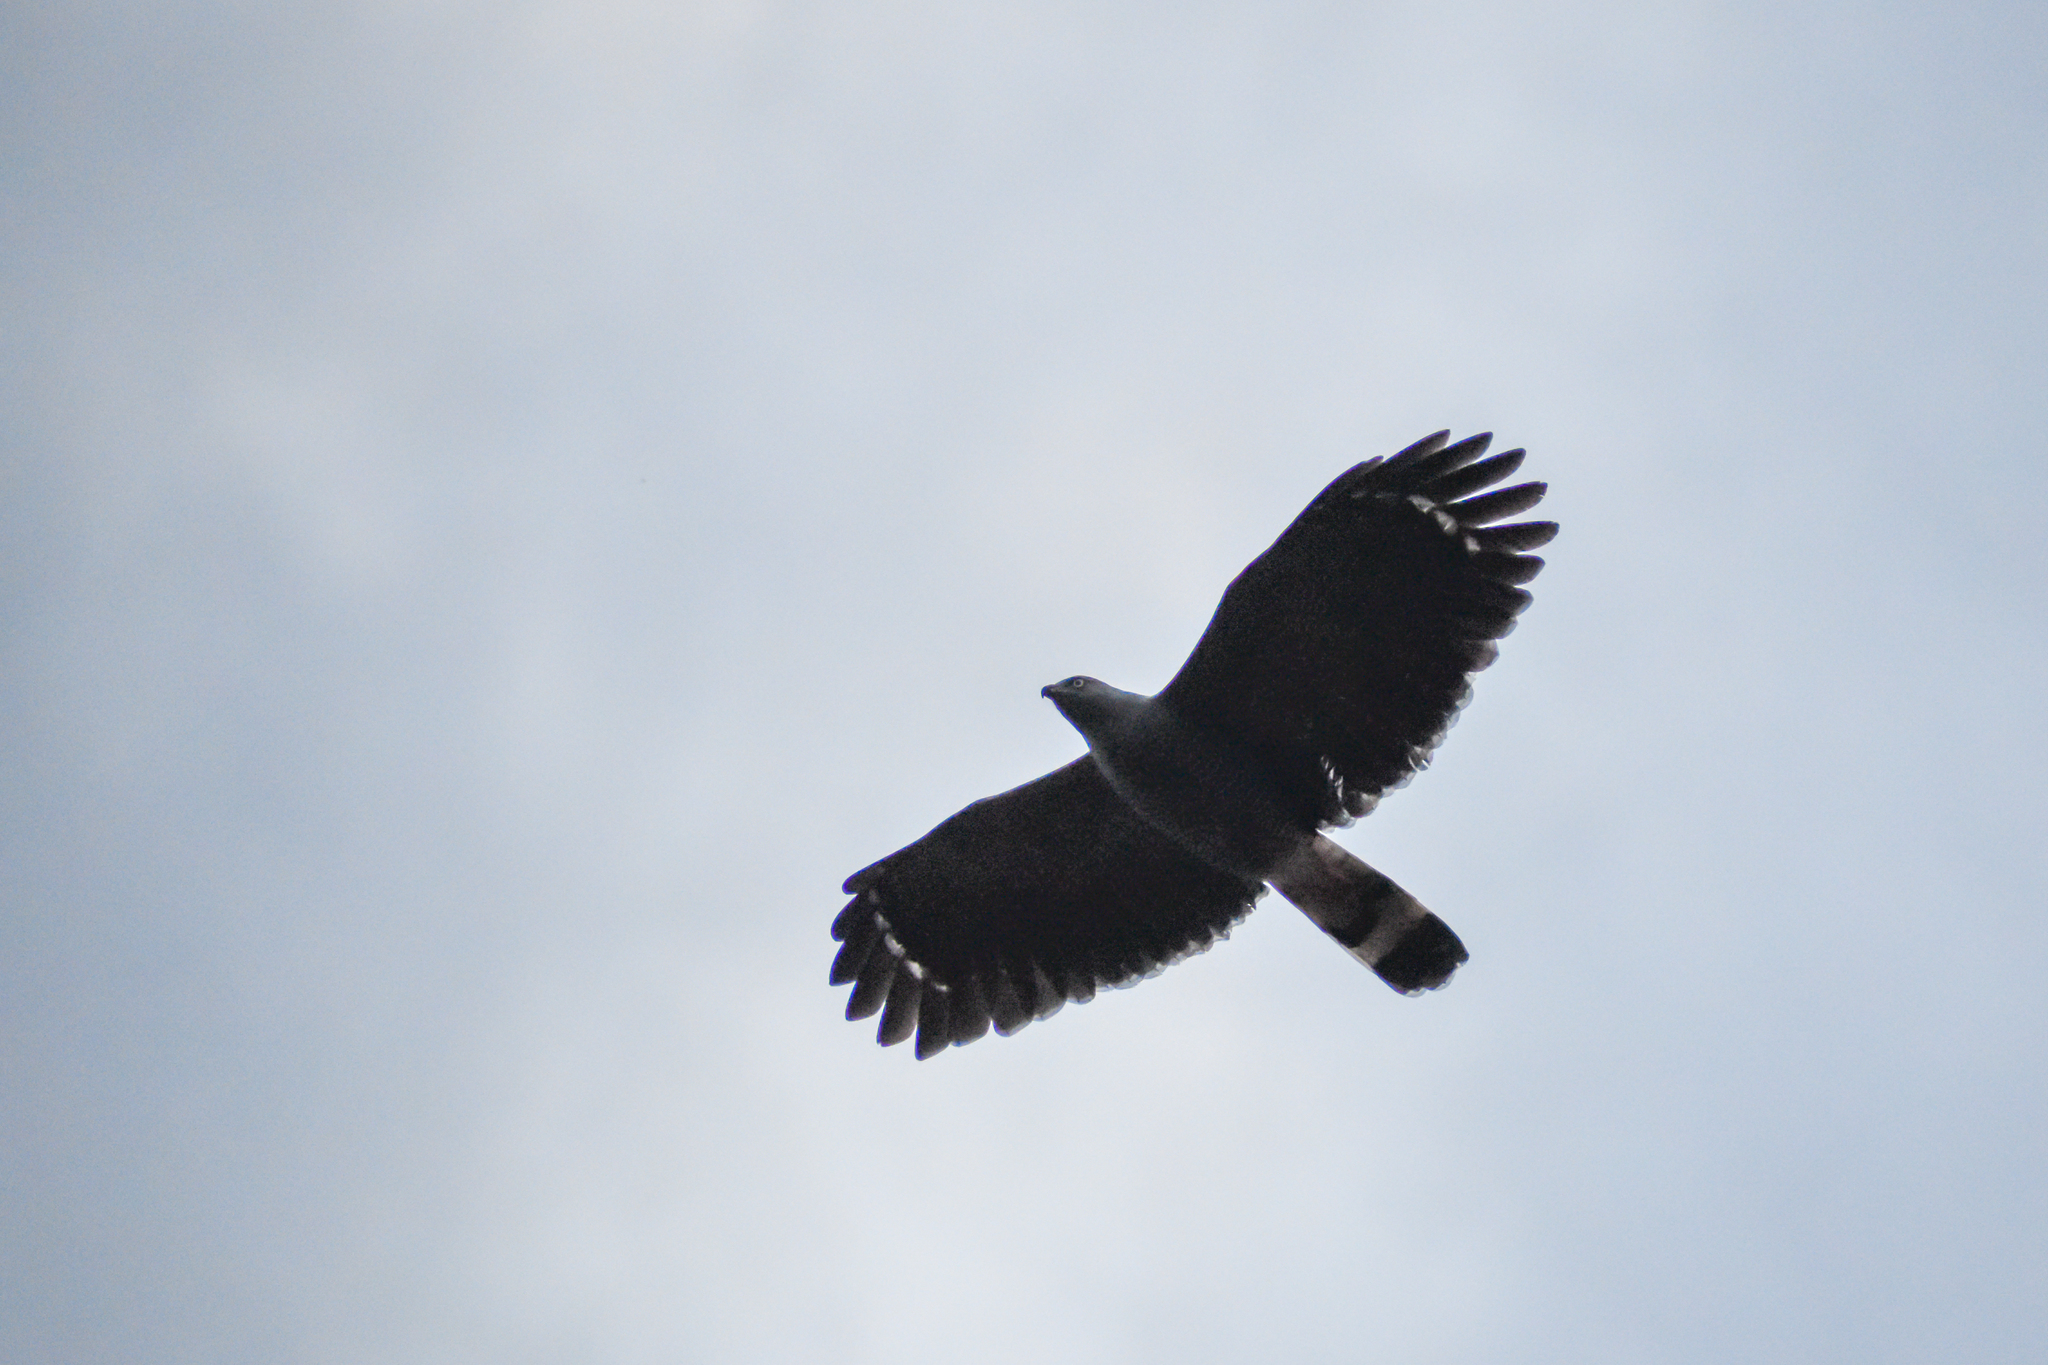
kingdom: Animalia
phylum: Chordata
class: Aves
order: Accipitriformes
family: Accipitridae
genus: Geranospiza
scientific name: Geranospiza caerulescens
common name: Crane hawk
